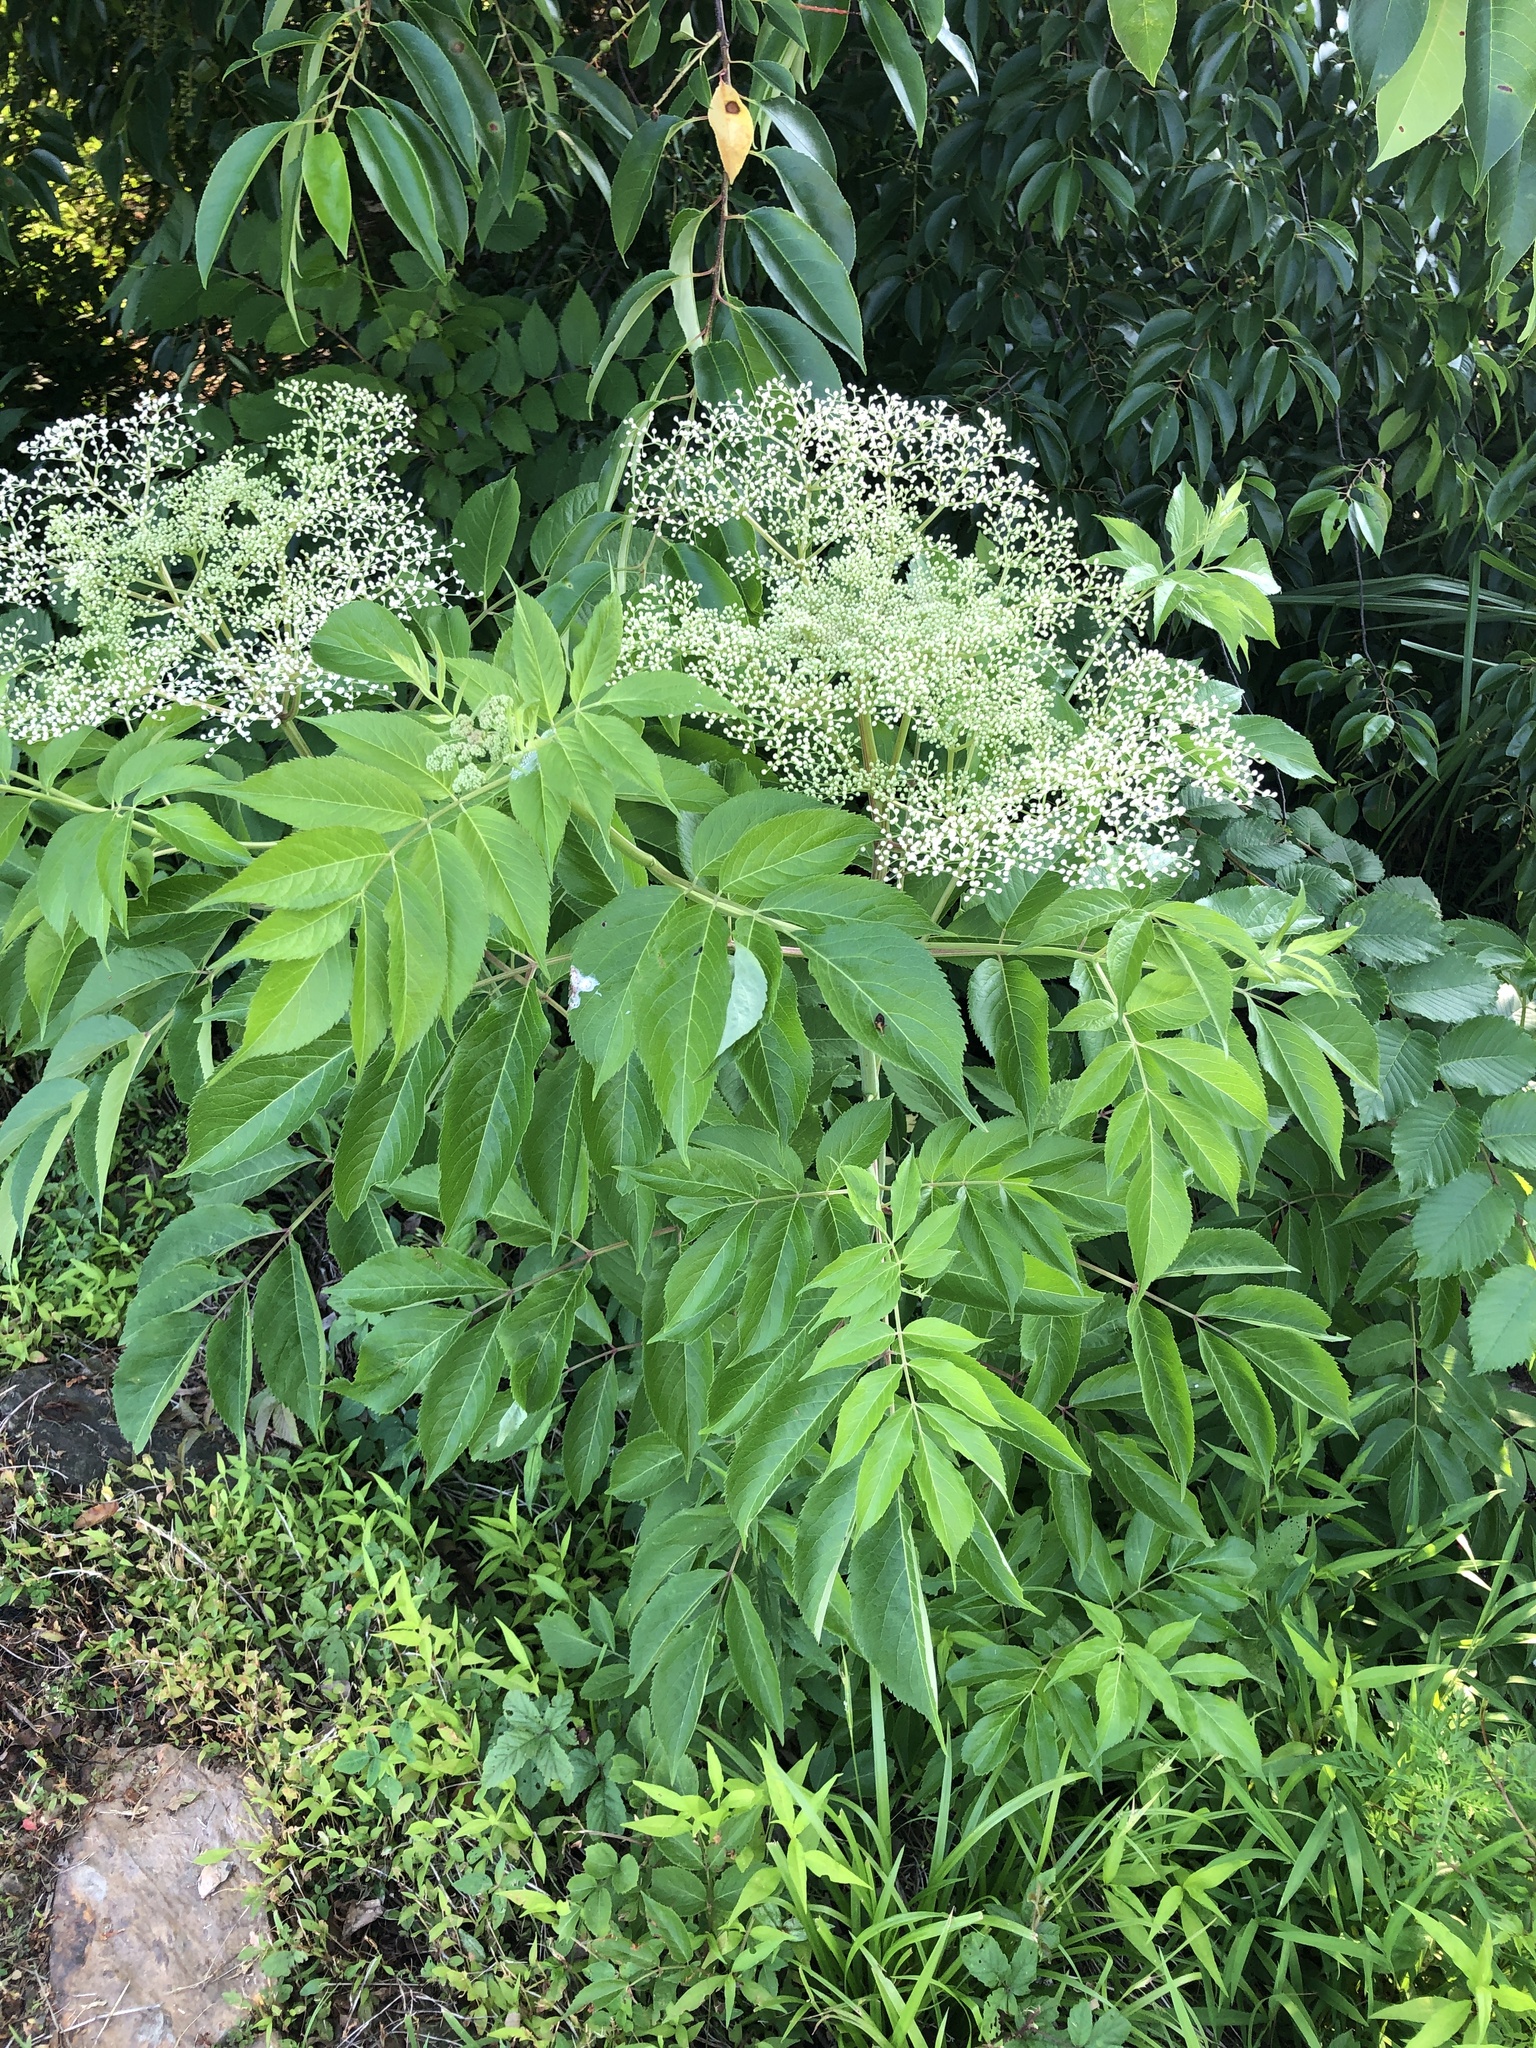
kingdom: Plantae
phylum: Tracheophyta
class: Magnoliopsida
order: Dipsacales
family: Viburnaceae
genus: Sambucus
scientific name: Sambucus canadensis
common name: American elder
